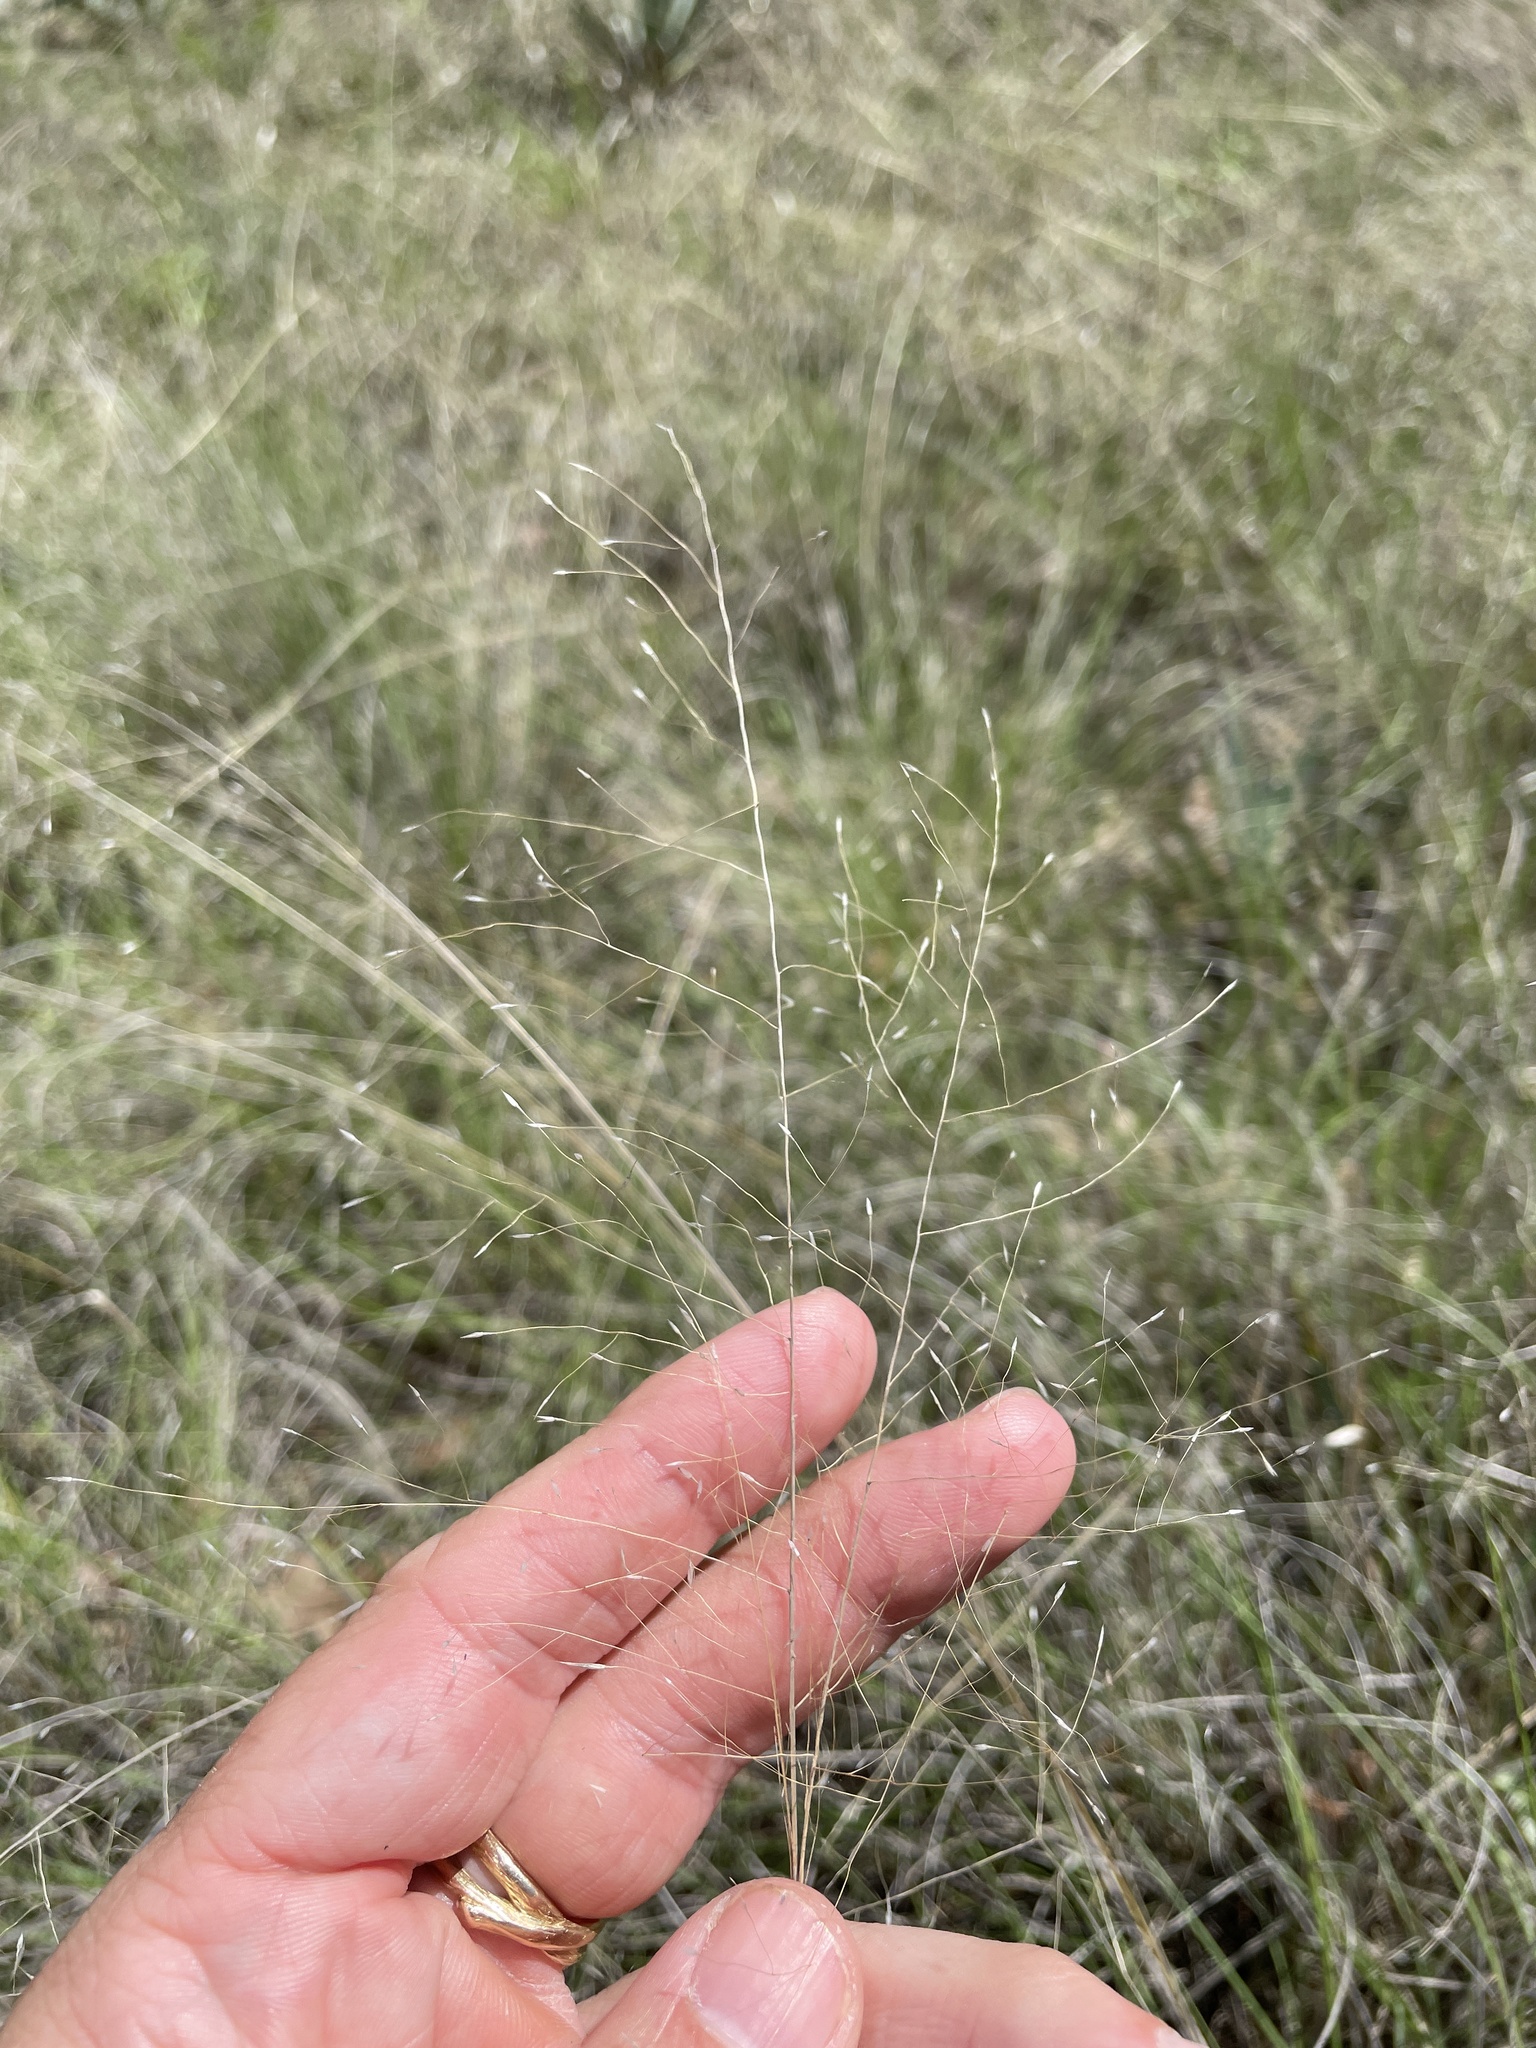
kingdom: Plantae
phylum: Tracheophyta
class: Liliopsida
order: Poales
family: Poaceae
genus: Muhlenbergia
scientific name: Muhlenbergia reverchonii
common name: Seep muhly
